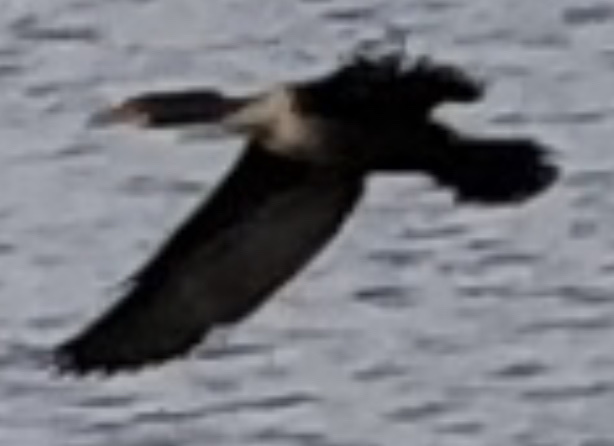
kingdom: Animalia
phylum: Chordata
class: Aves
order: Suliformes
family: Phalacrocoracidae
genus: Phalacrocorax
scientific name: Phalacrocorax auritus
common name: Double-crested cormorant
